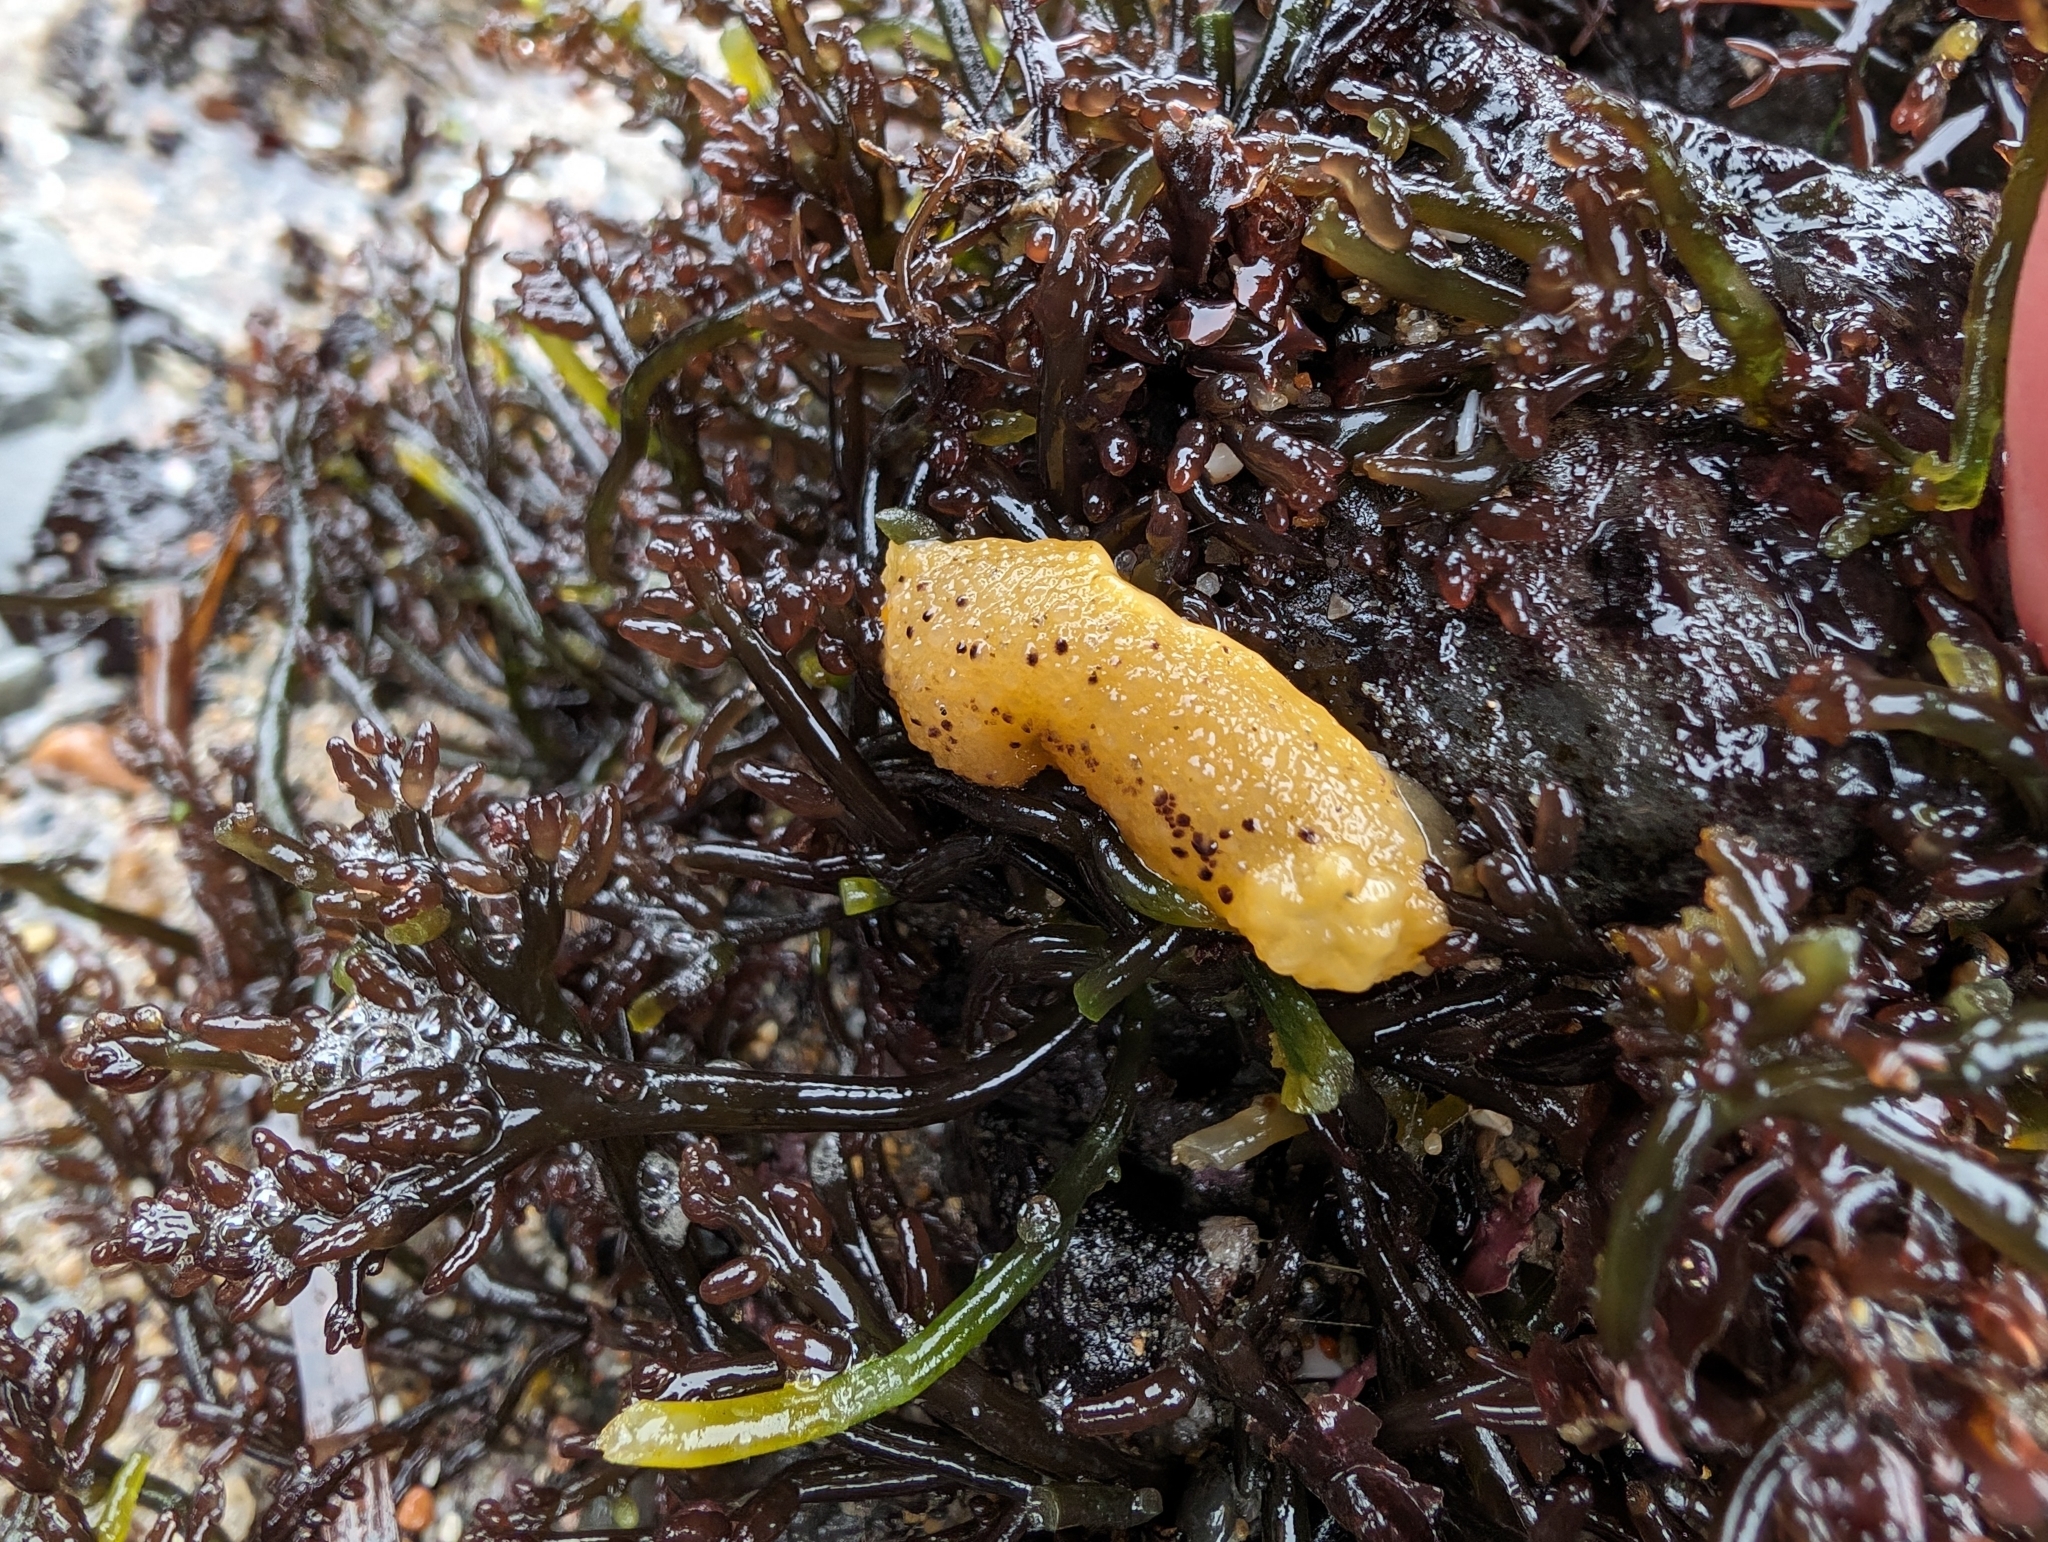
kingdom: Animalia
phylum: Mollusca
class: Gastropoda
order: Nudibranchia
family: Dorididae
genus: Doris
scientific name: Doris montereyensis
